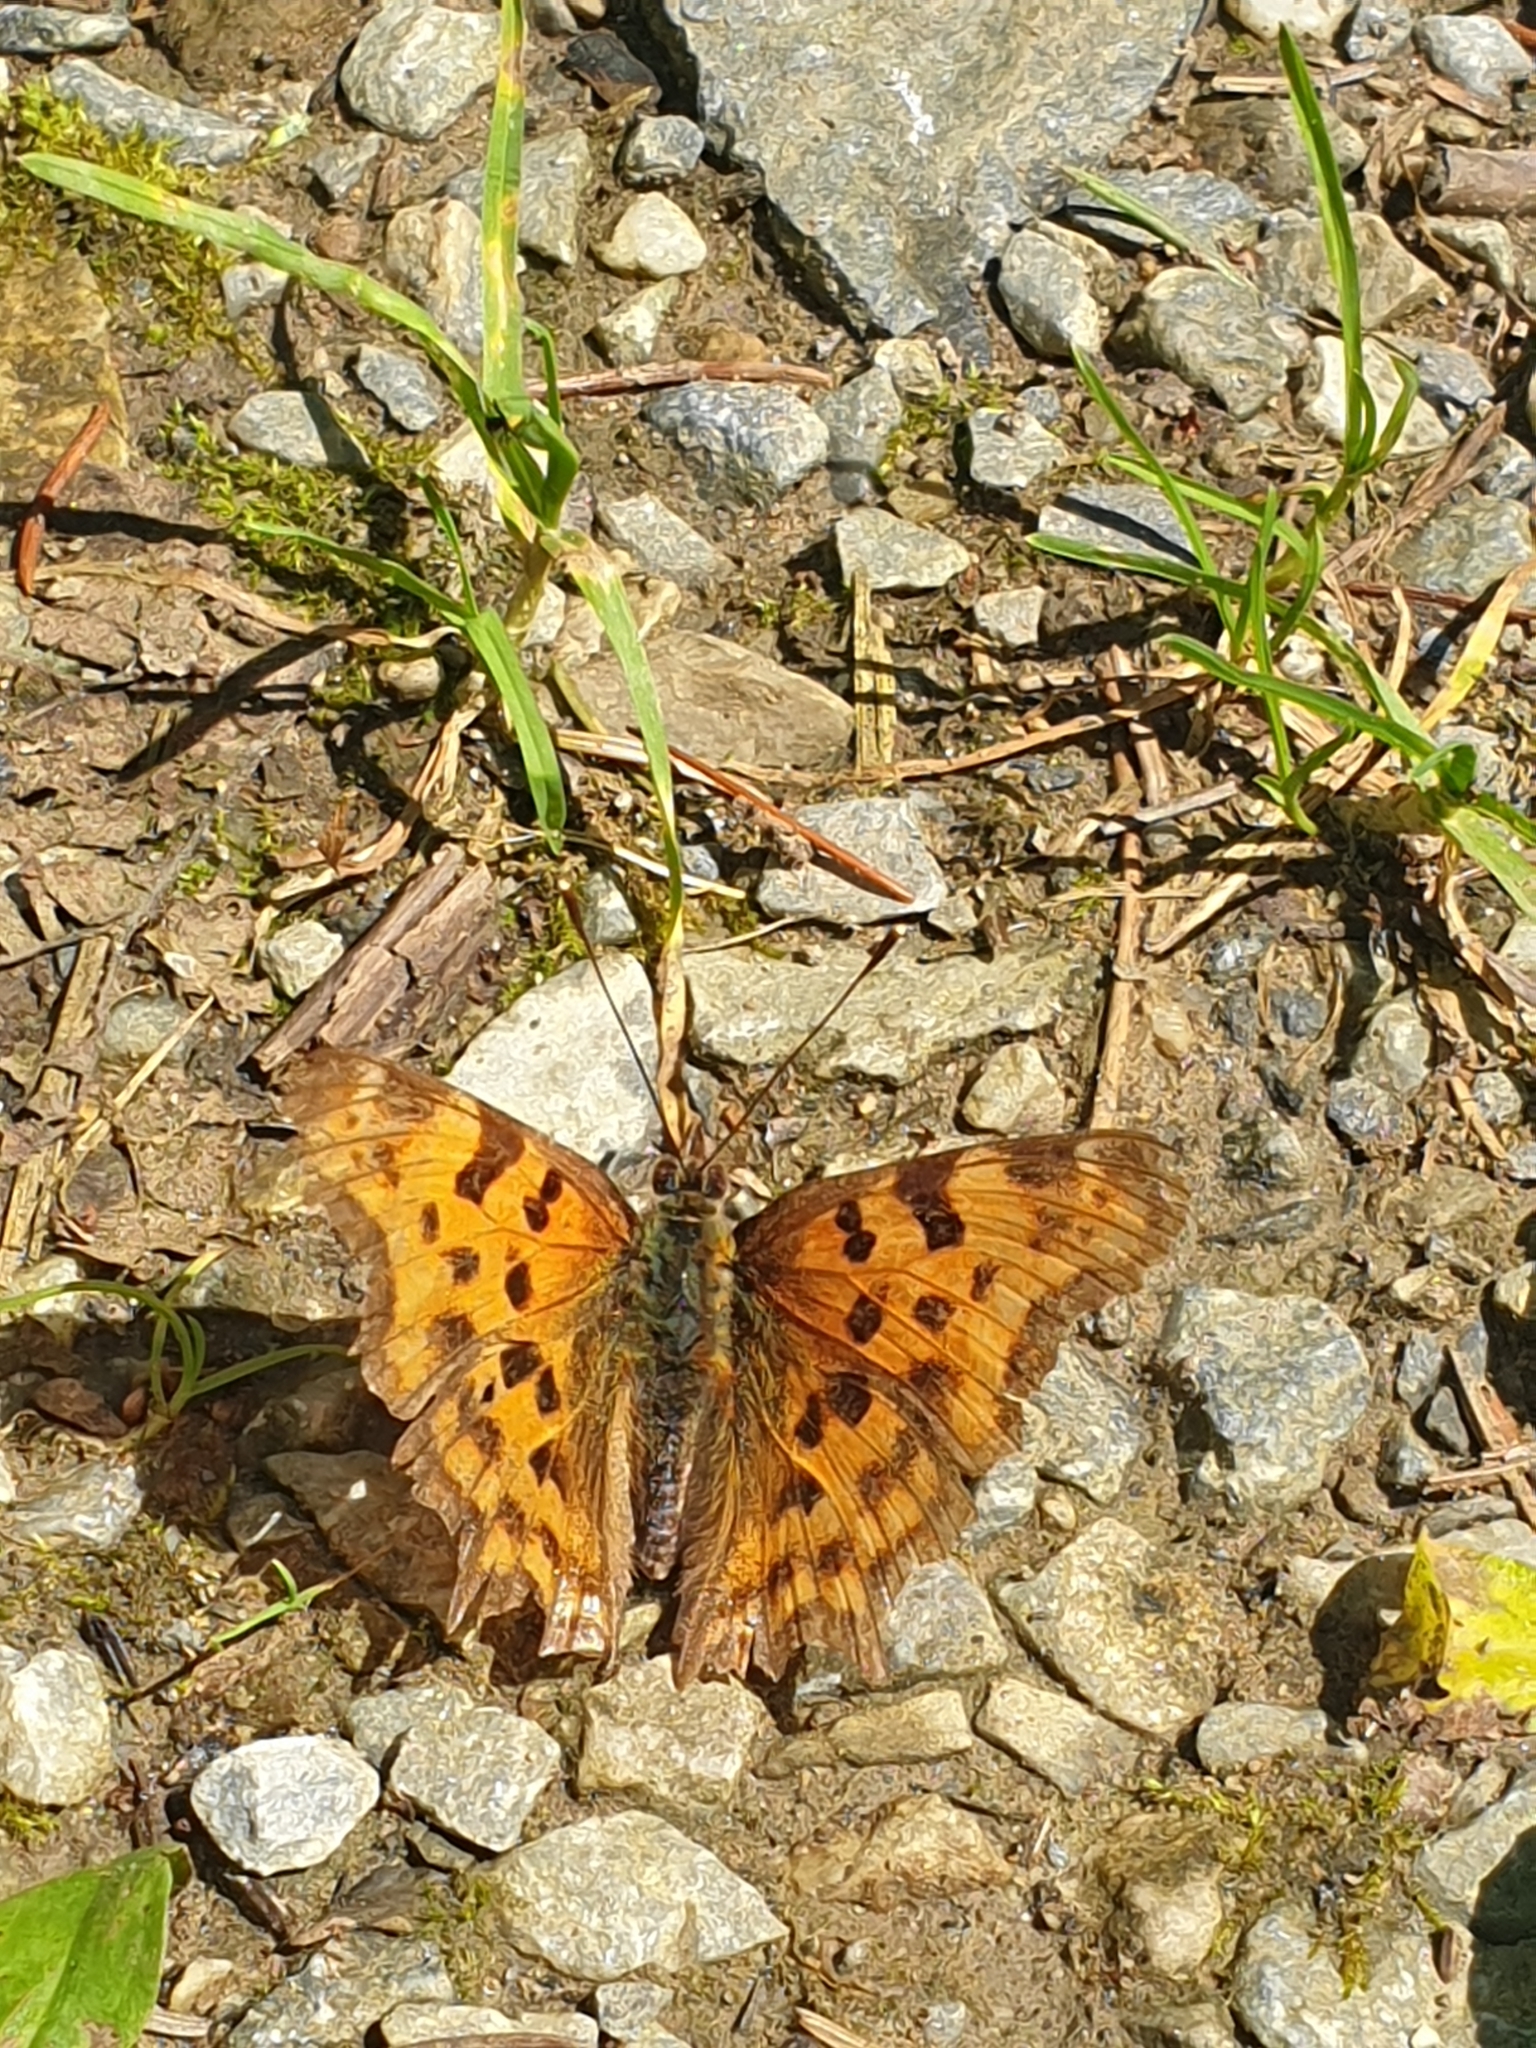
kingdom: Animalia
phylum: Arthropoda
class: Insecta
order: Lepidoptera
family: Nymphalidae
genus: Polygonia
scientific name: Polygonia c-album
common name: Comma
